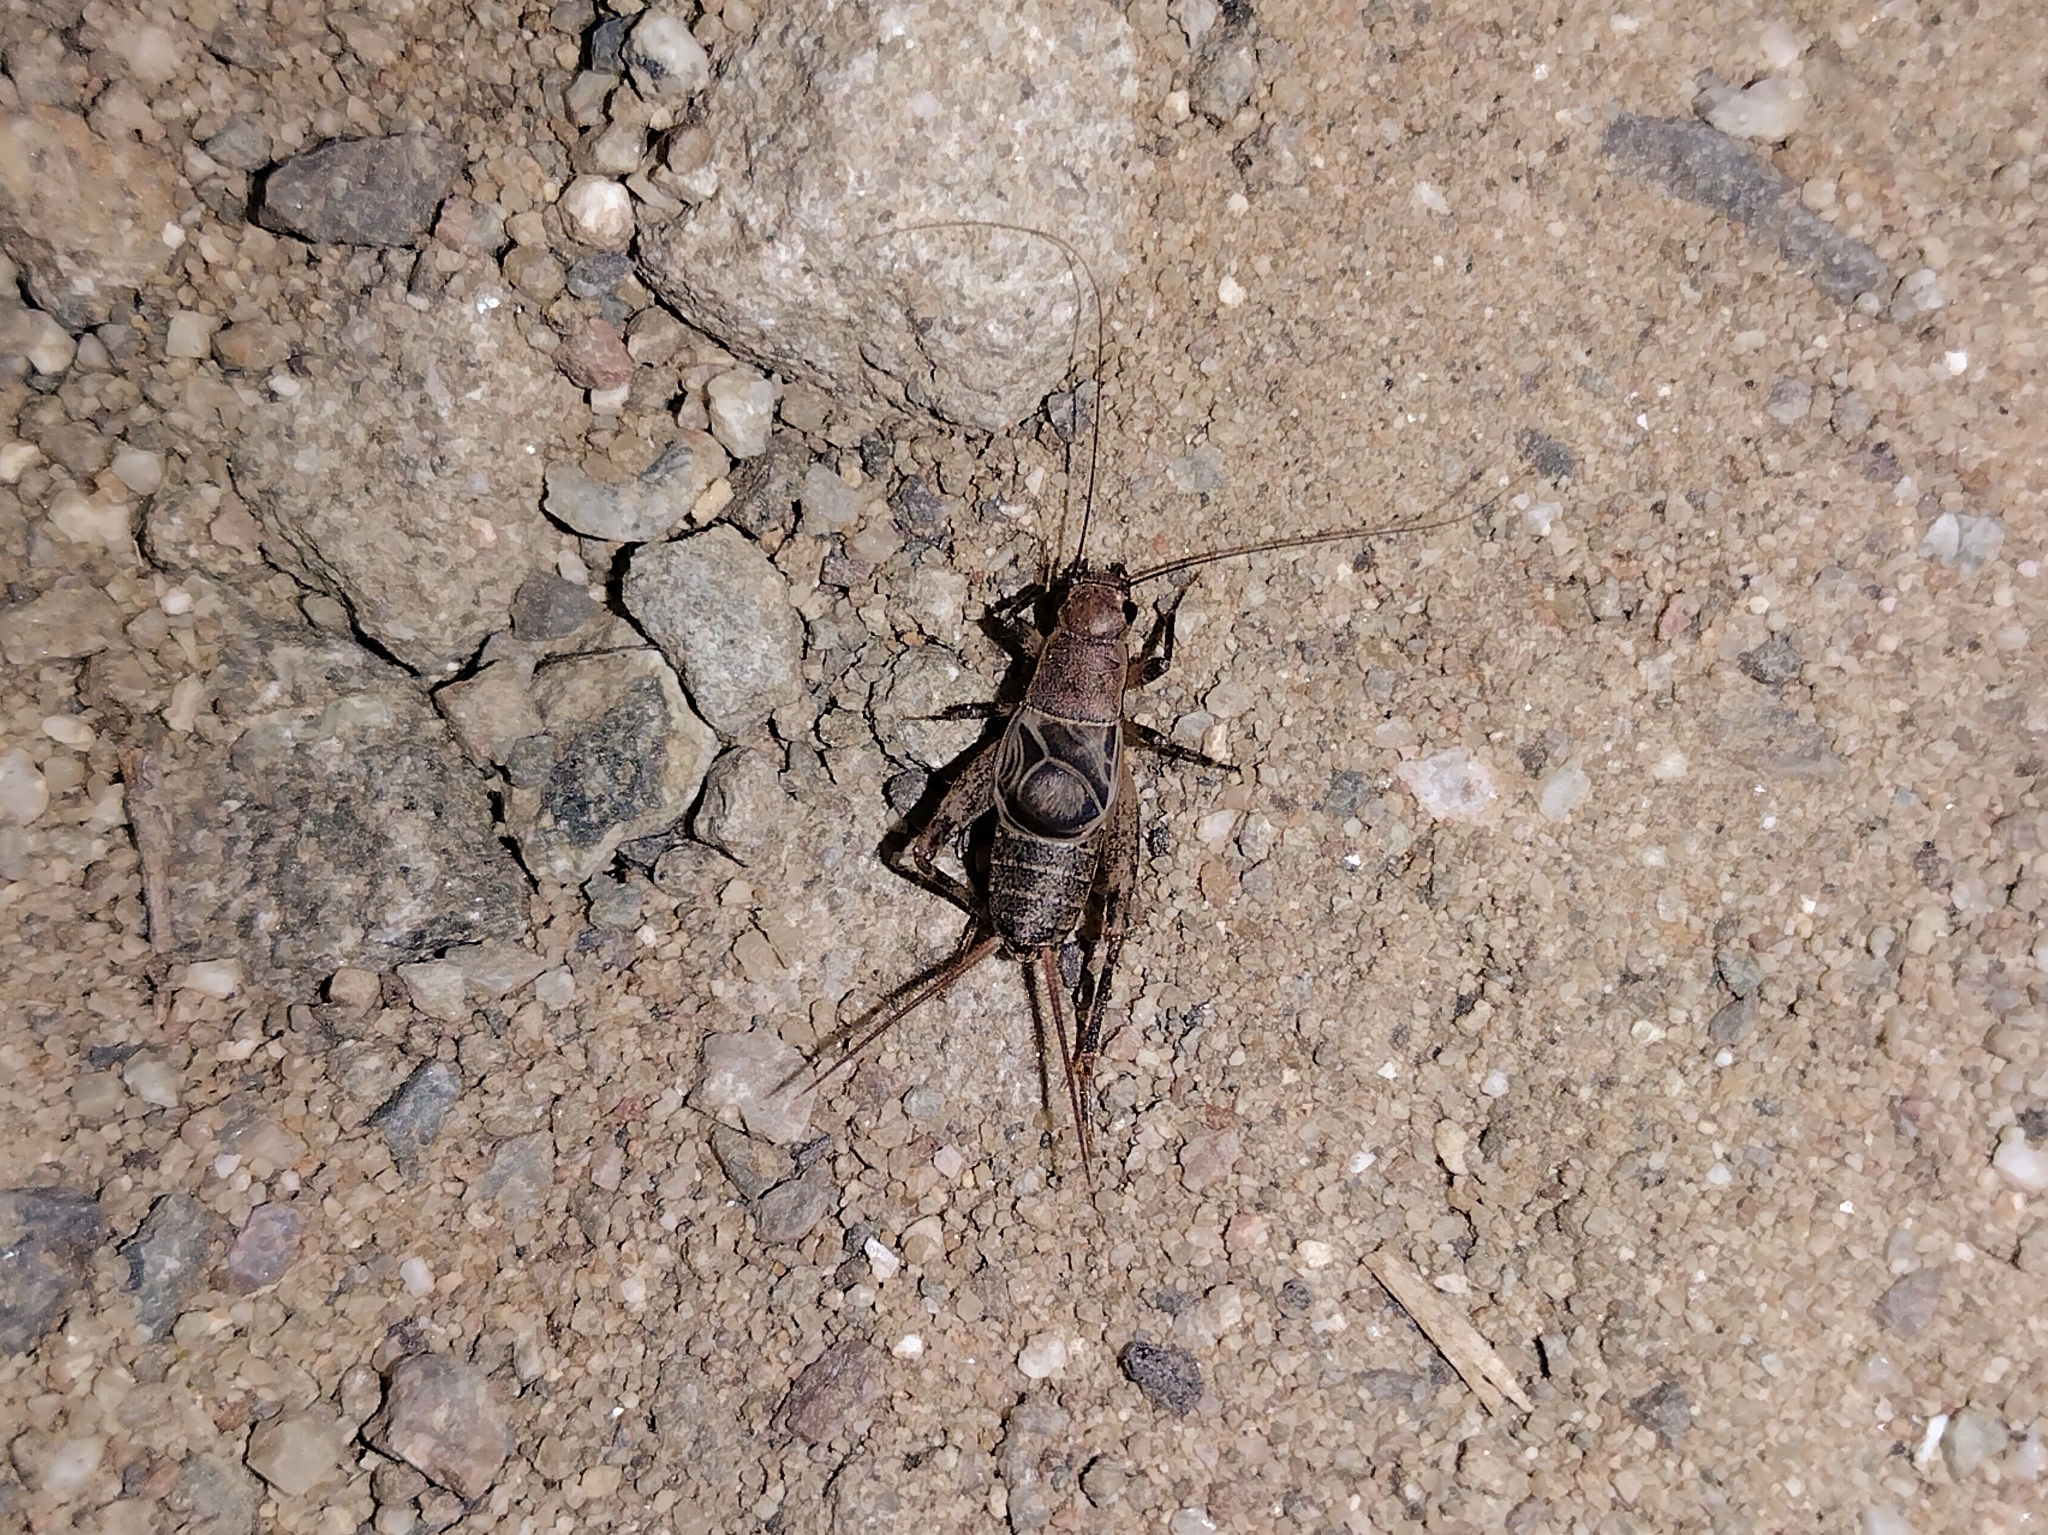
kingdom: Animalia
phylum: Arthropoda
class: Insecta
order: Orthoptera
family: Mogoplistidae
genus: Hoplosphyrum
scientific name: Hoplosphyrum boreale
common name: Long-winged scaly cricket
